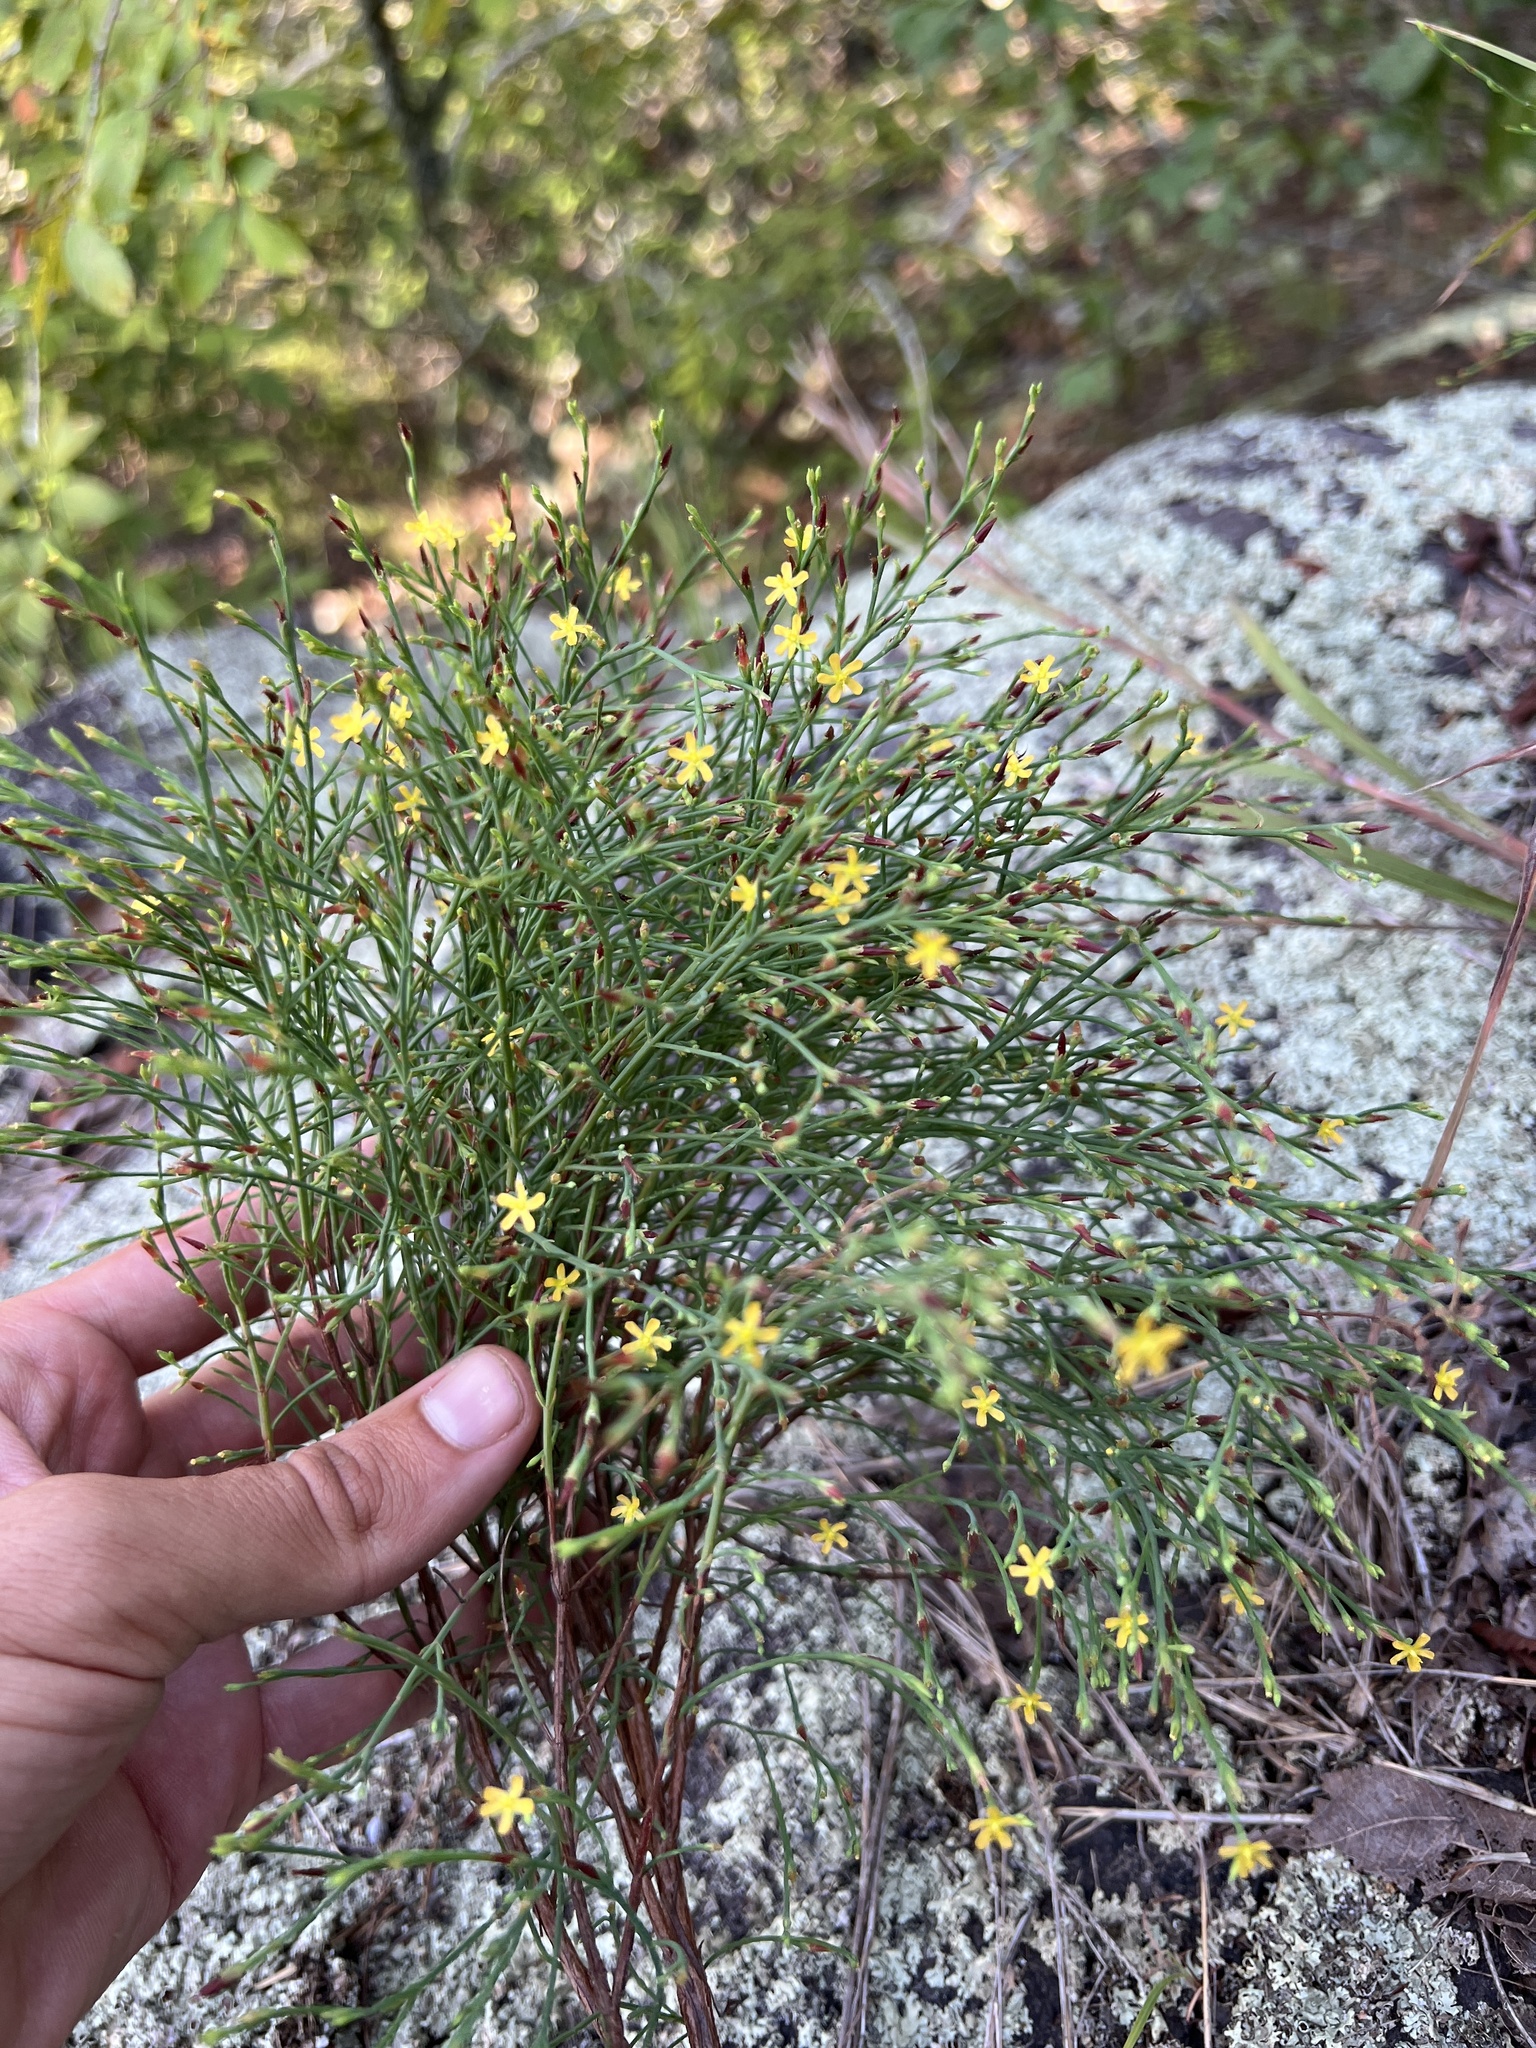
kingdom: Plantae
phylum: Tracheophyta
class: Magnoliopsida
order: Malpighiales
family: Hypericaceae
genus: Hypericum
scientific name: Hypericum gentianoides
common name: Gentian-leaved st. john's-wort
